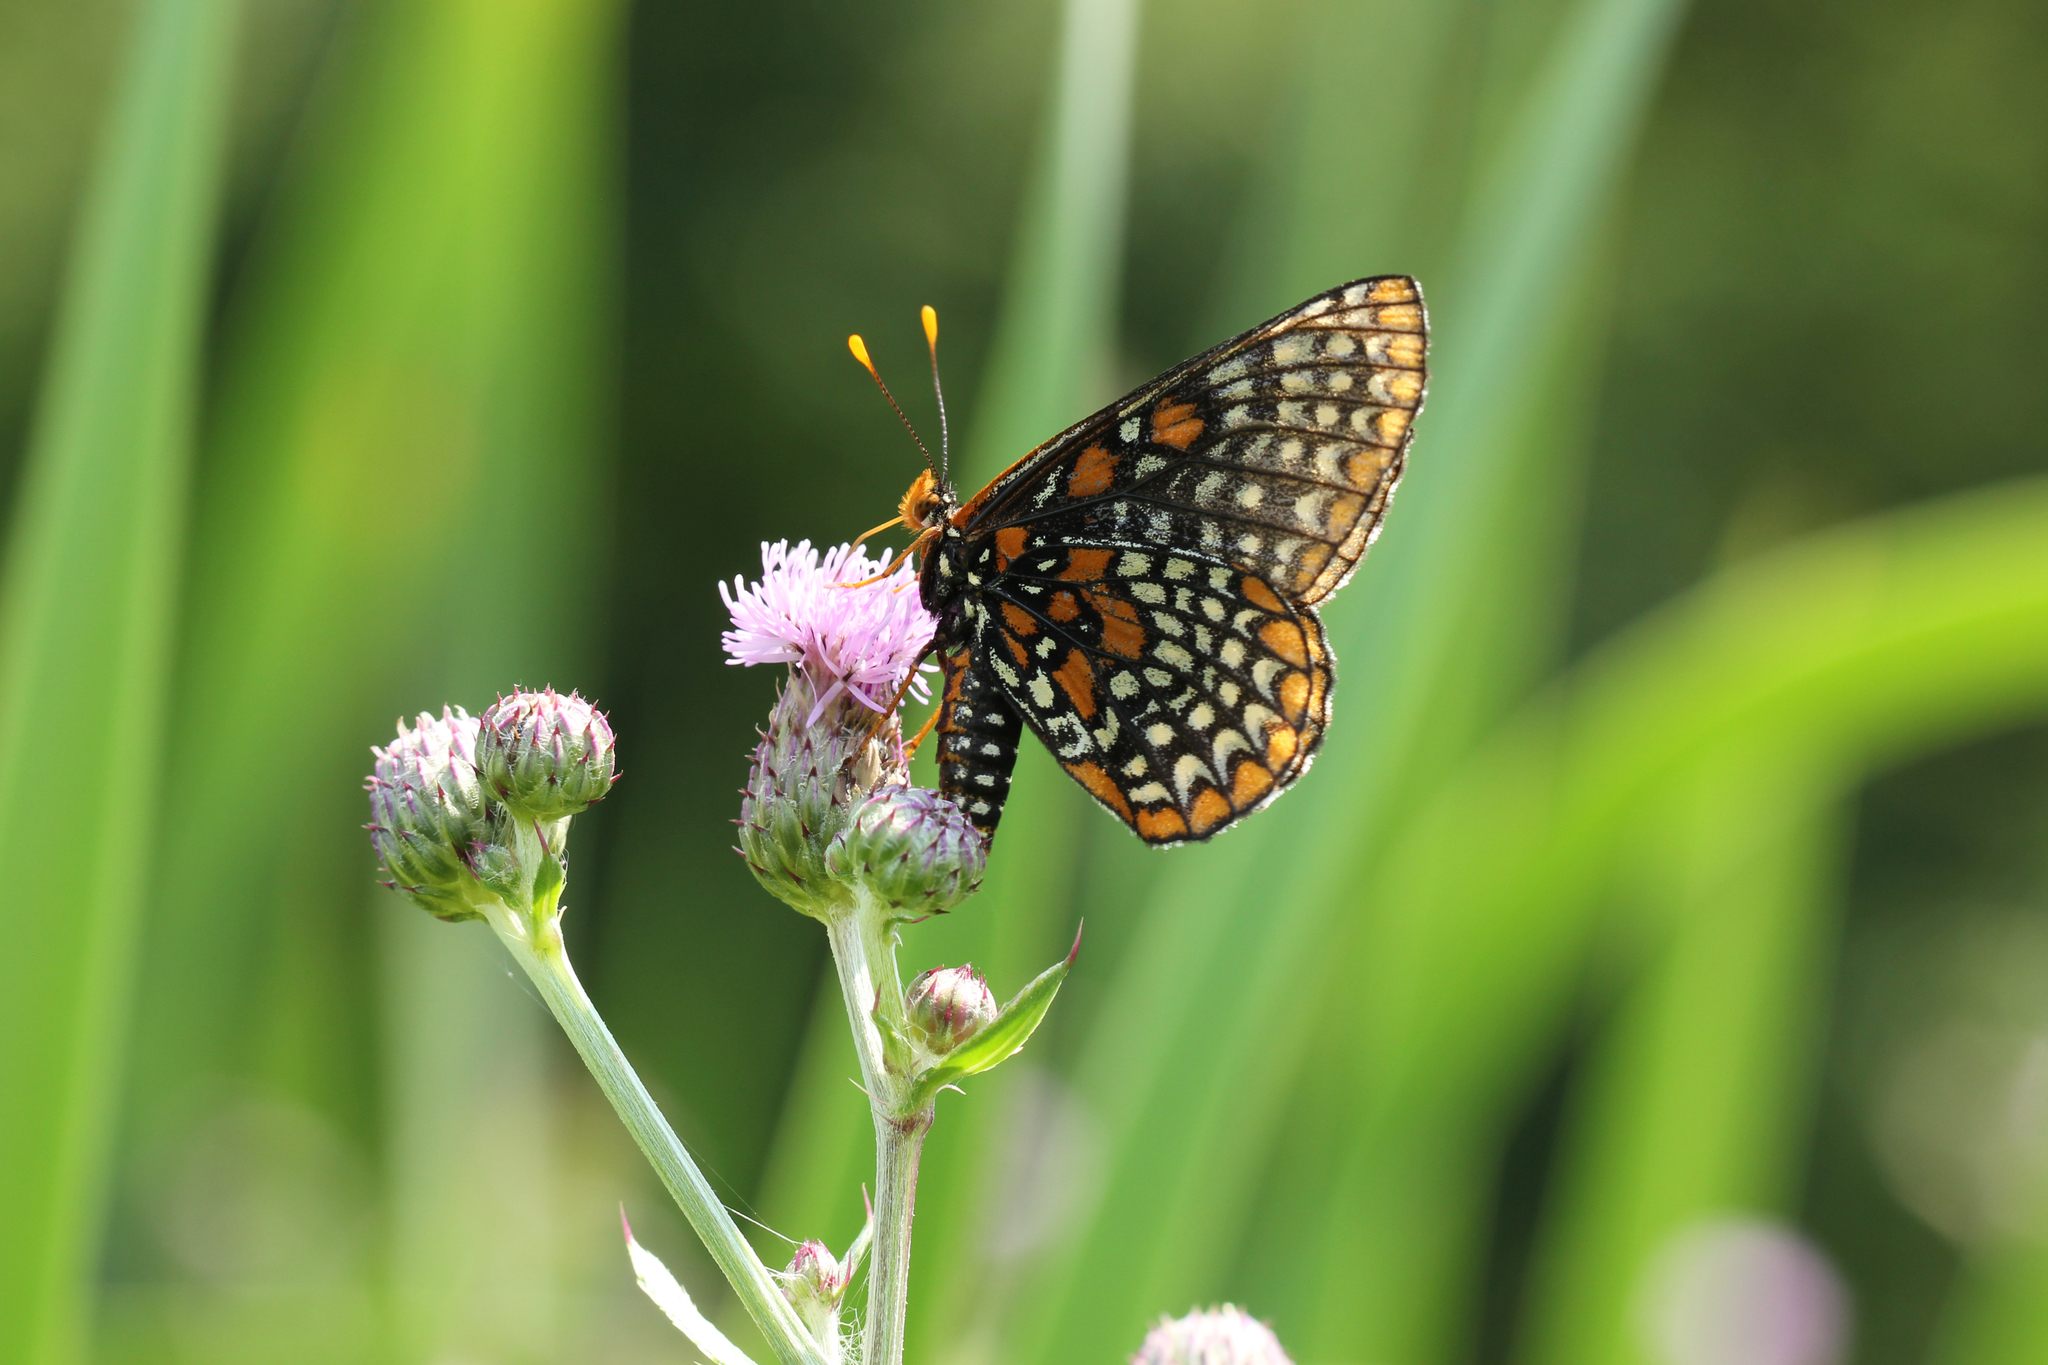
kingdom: Animalia
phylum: Arthropoda
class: Insecta
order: Lepidoptera
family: Nymphalidae
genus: Euphydryas
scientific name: Euphydryas phaeton
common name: Baltimore checkerspot
